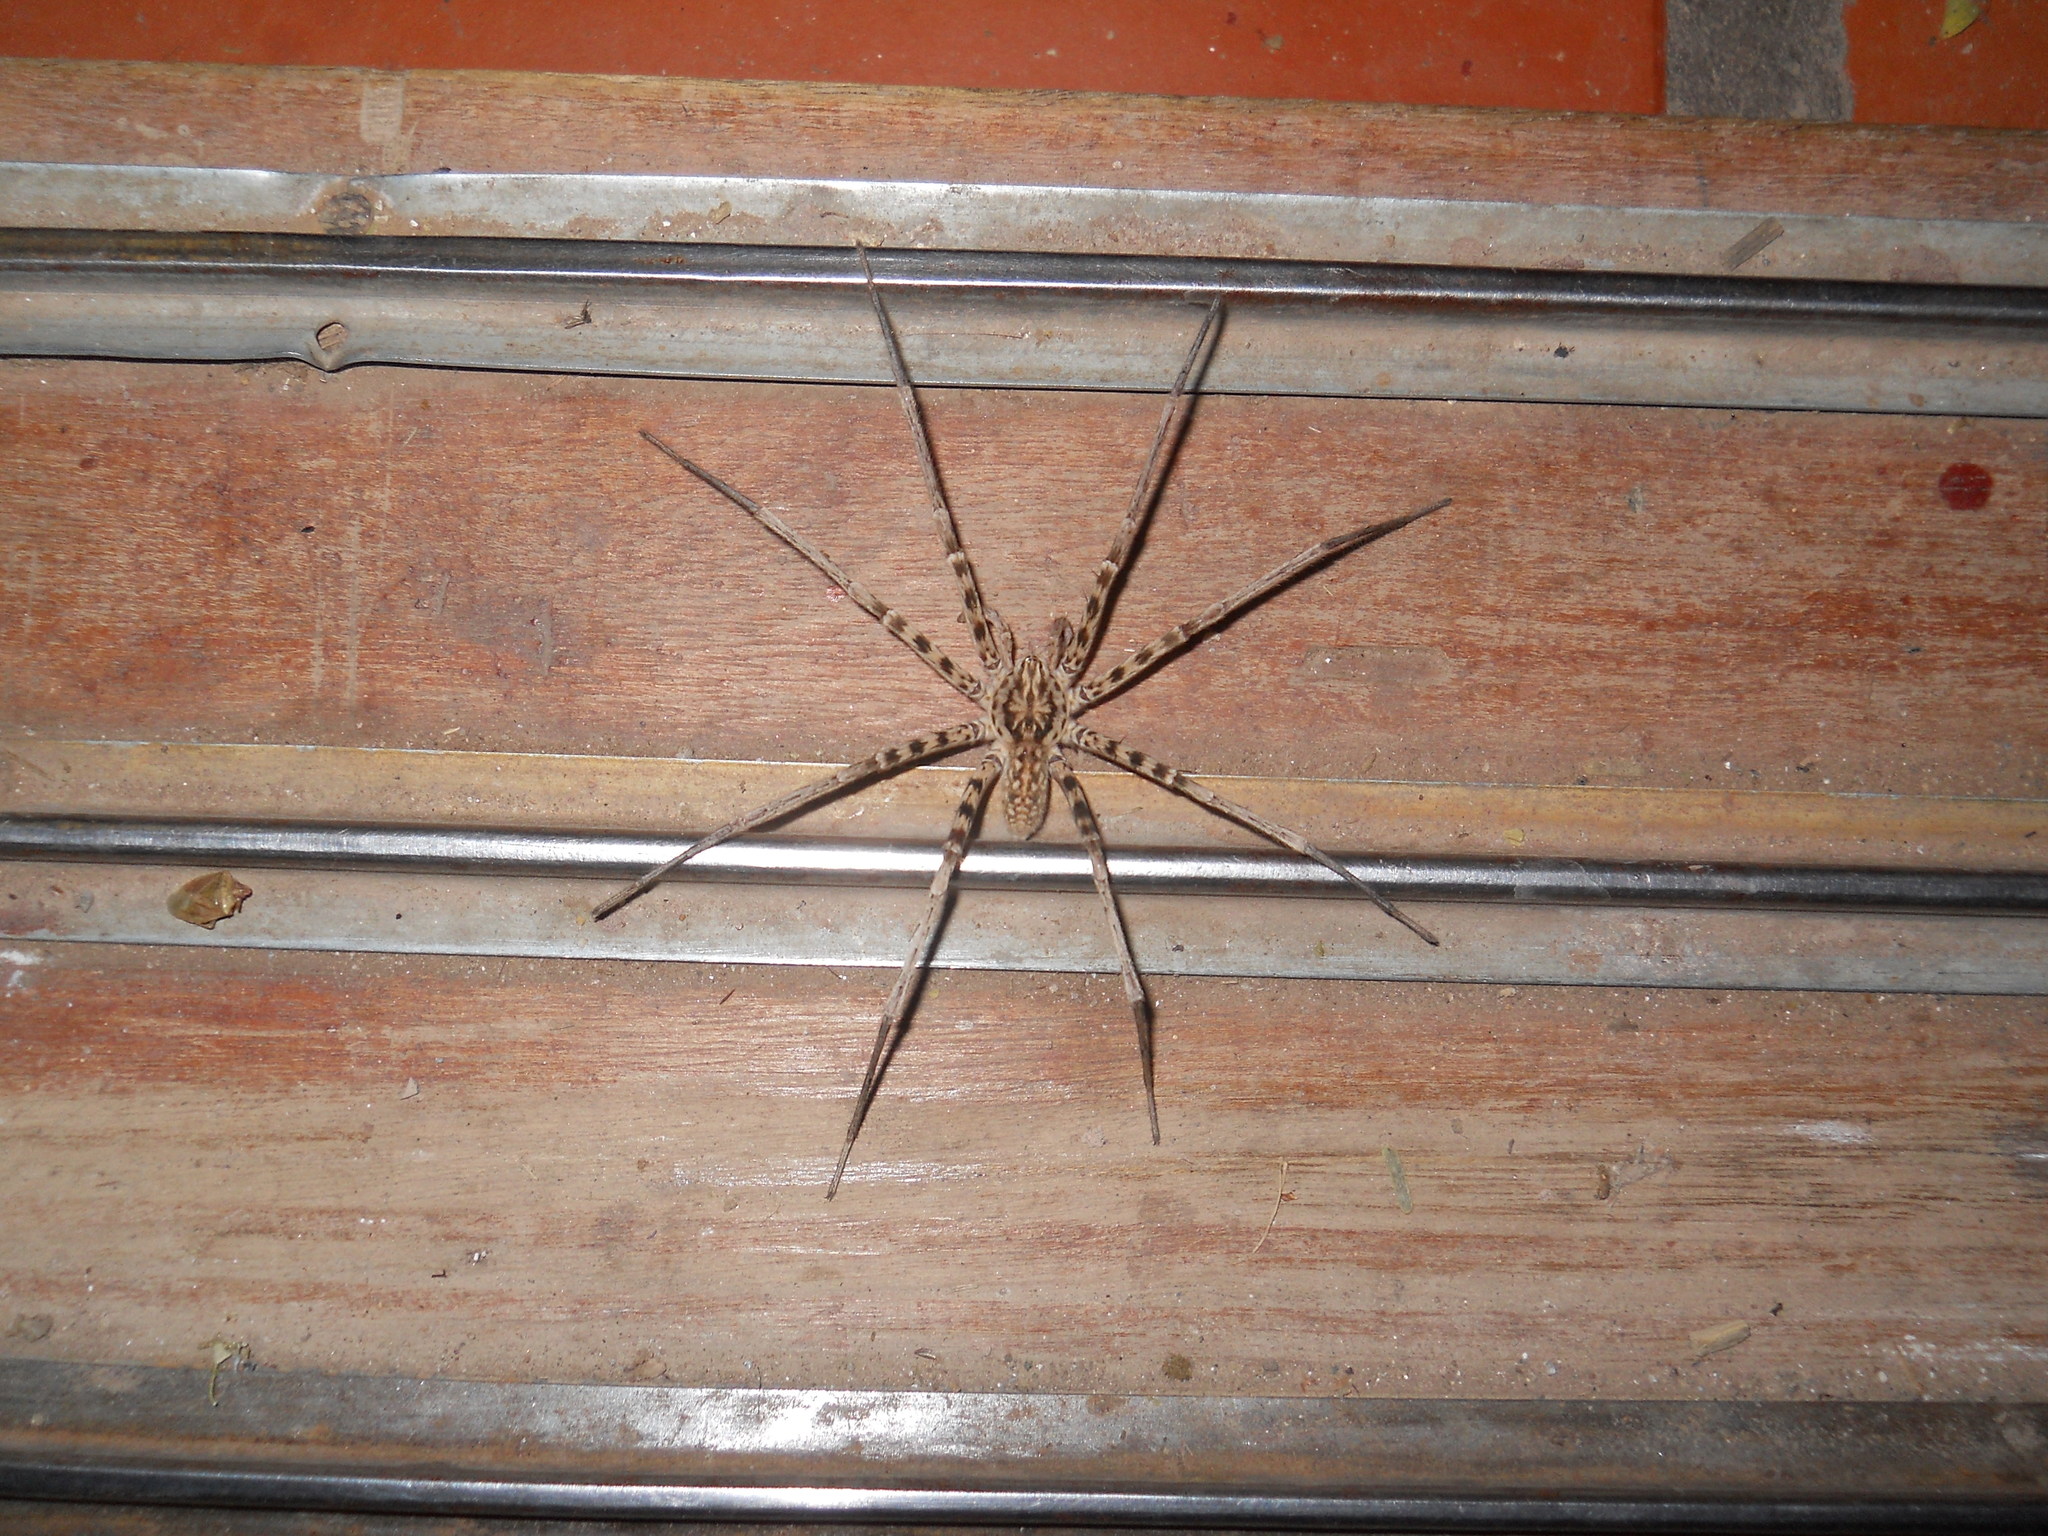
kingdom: Animalia
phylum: Arthropoda
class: Arachnida
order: Araneae
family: Xenoctenidae
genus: Xenoctenus
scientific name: Xenoctenus unguiculatus
